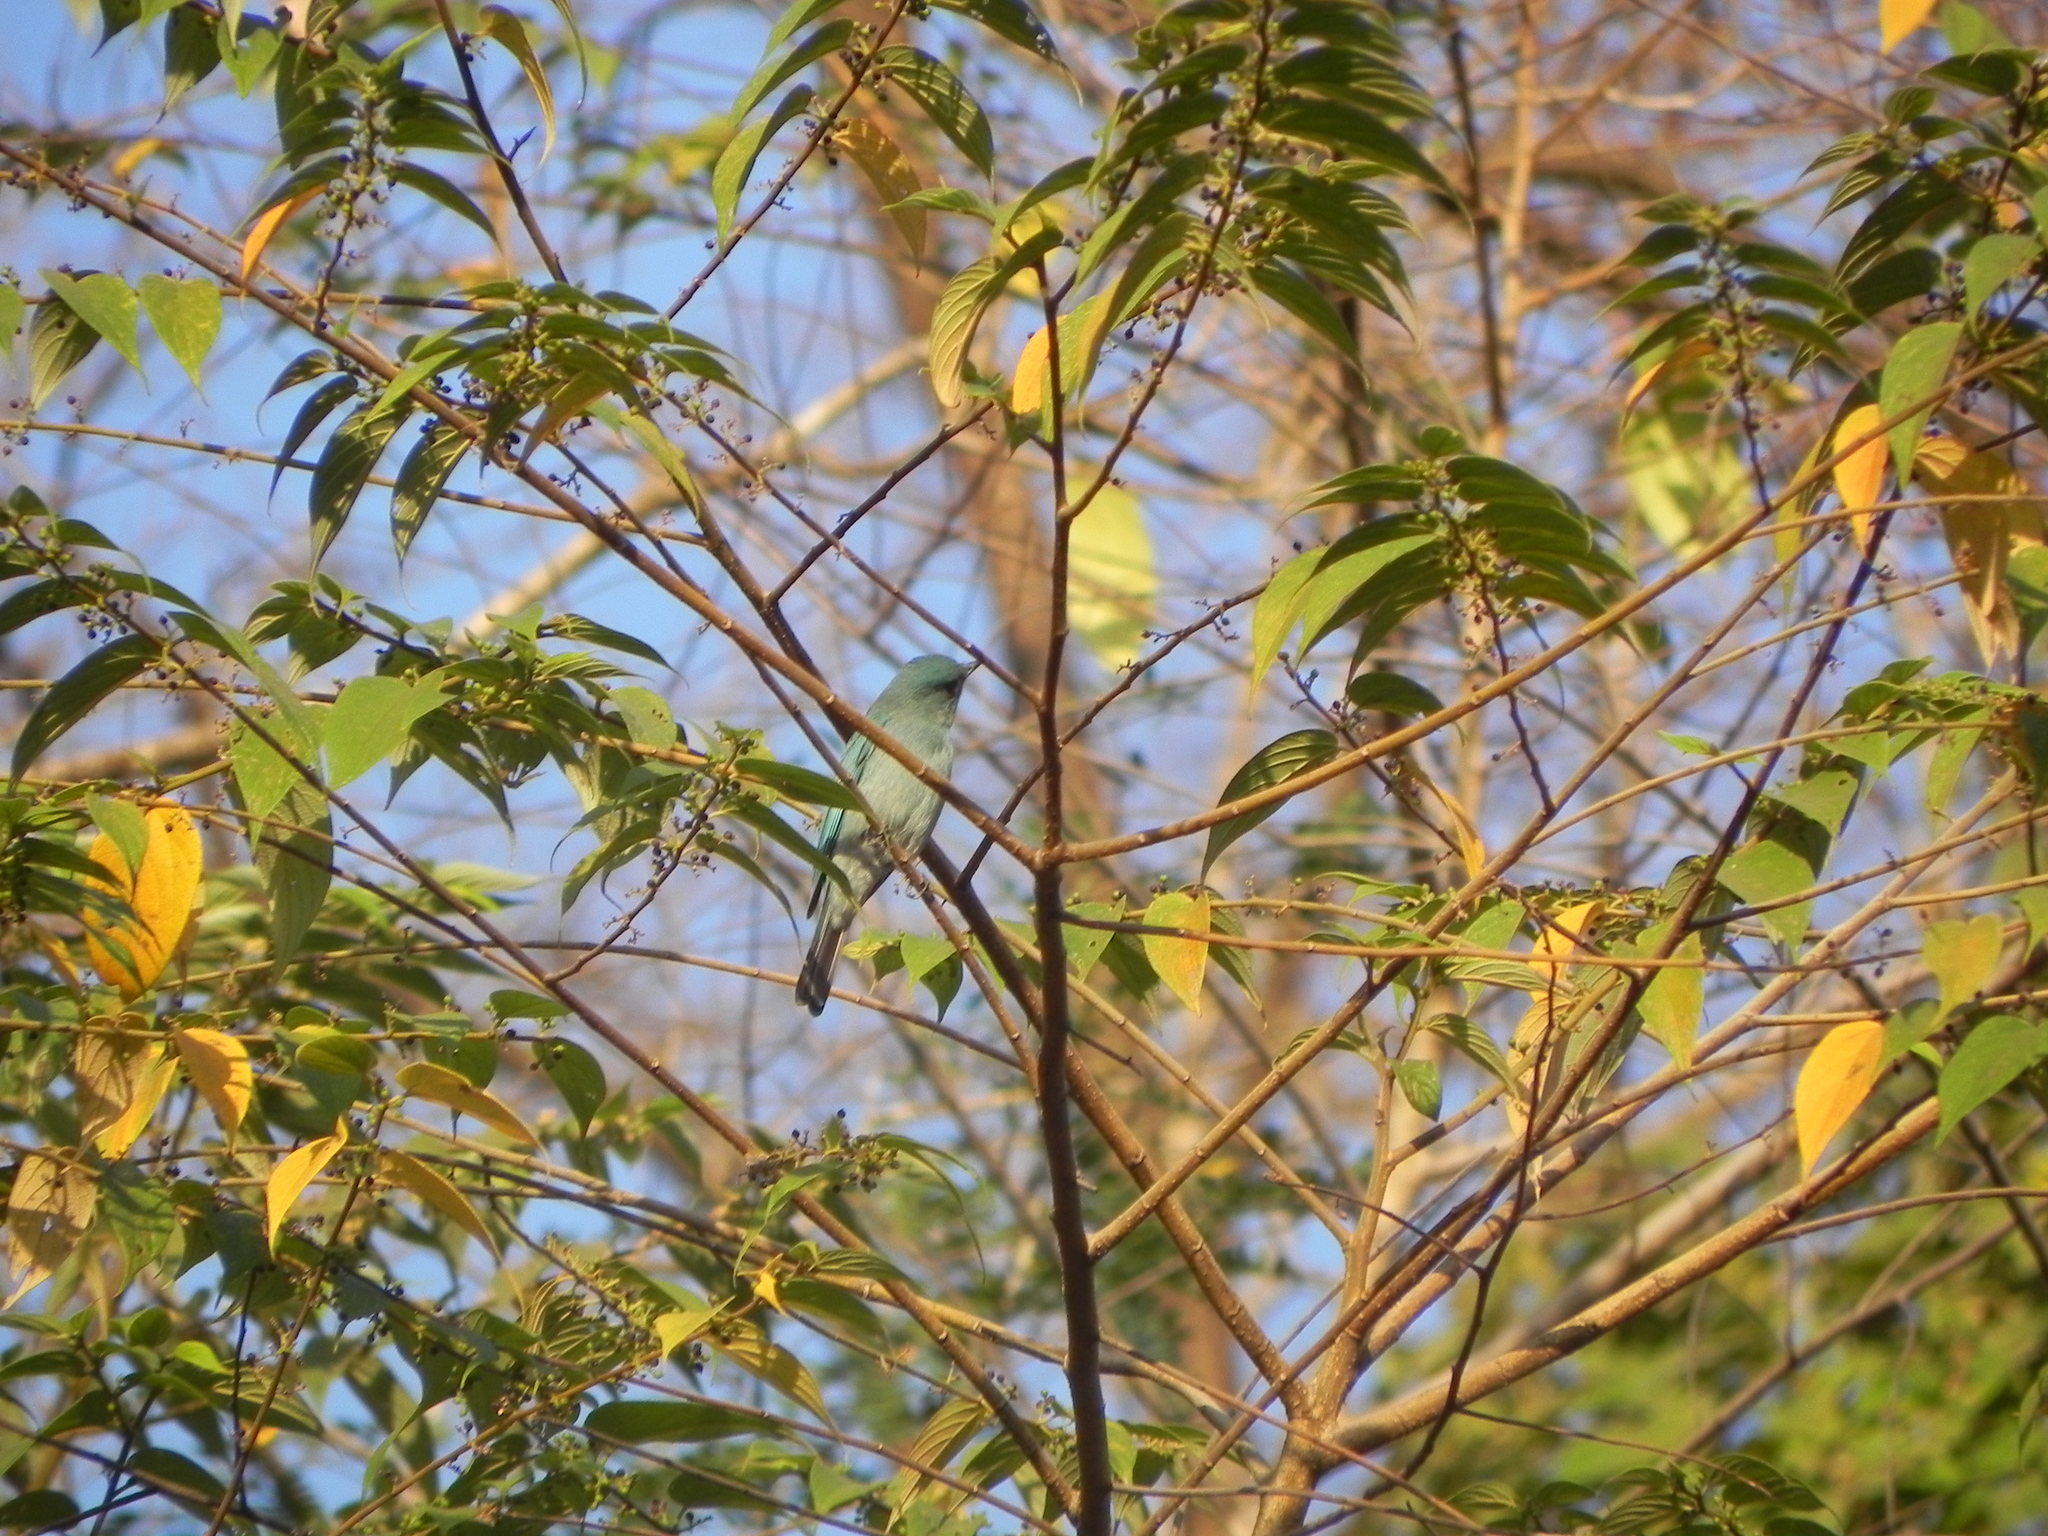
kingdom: Animalia
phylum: Chordata
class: Aves
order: Passeriformes
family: Muscicapidae
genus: Eumyias
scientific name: Eumyias thalassinus
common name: Verditer flycatcher
